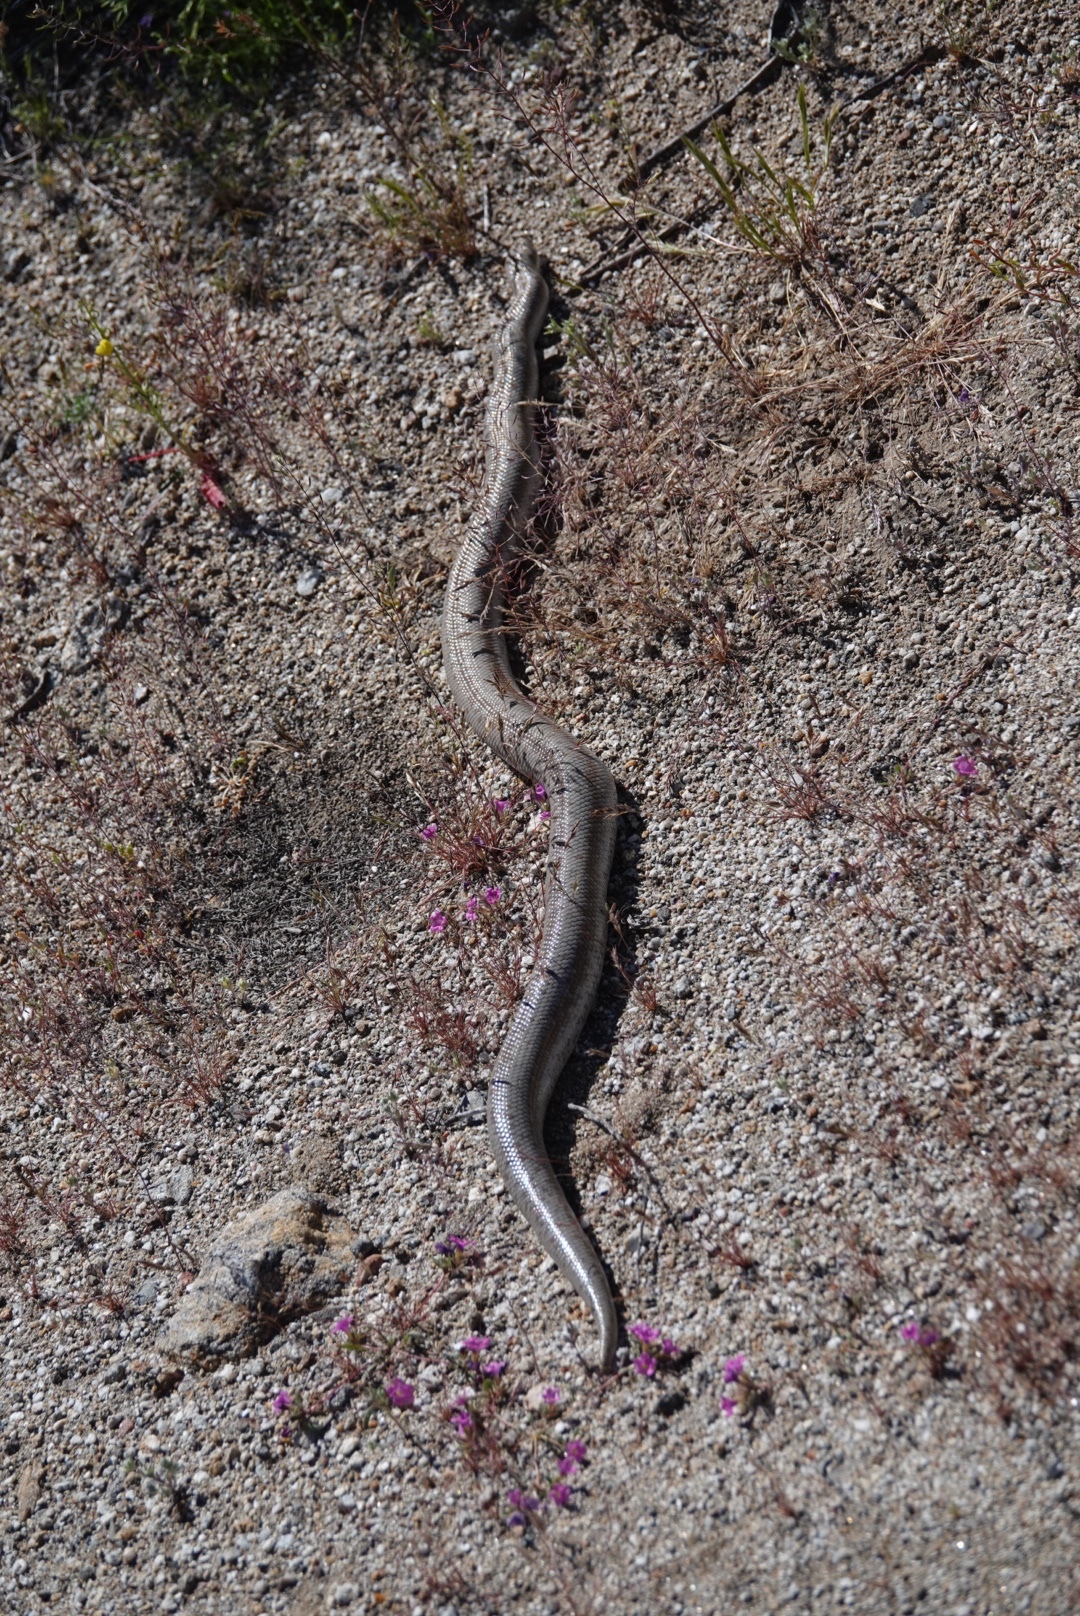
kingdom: Animalia
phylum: Chordata
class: Squamata
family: Boidae
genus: Lichanura
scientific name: Lichanura orcutti
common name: Northern three-lined boa
